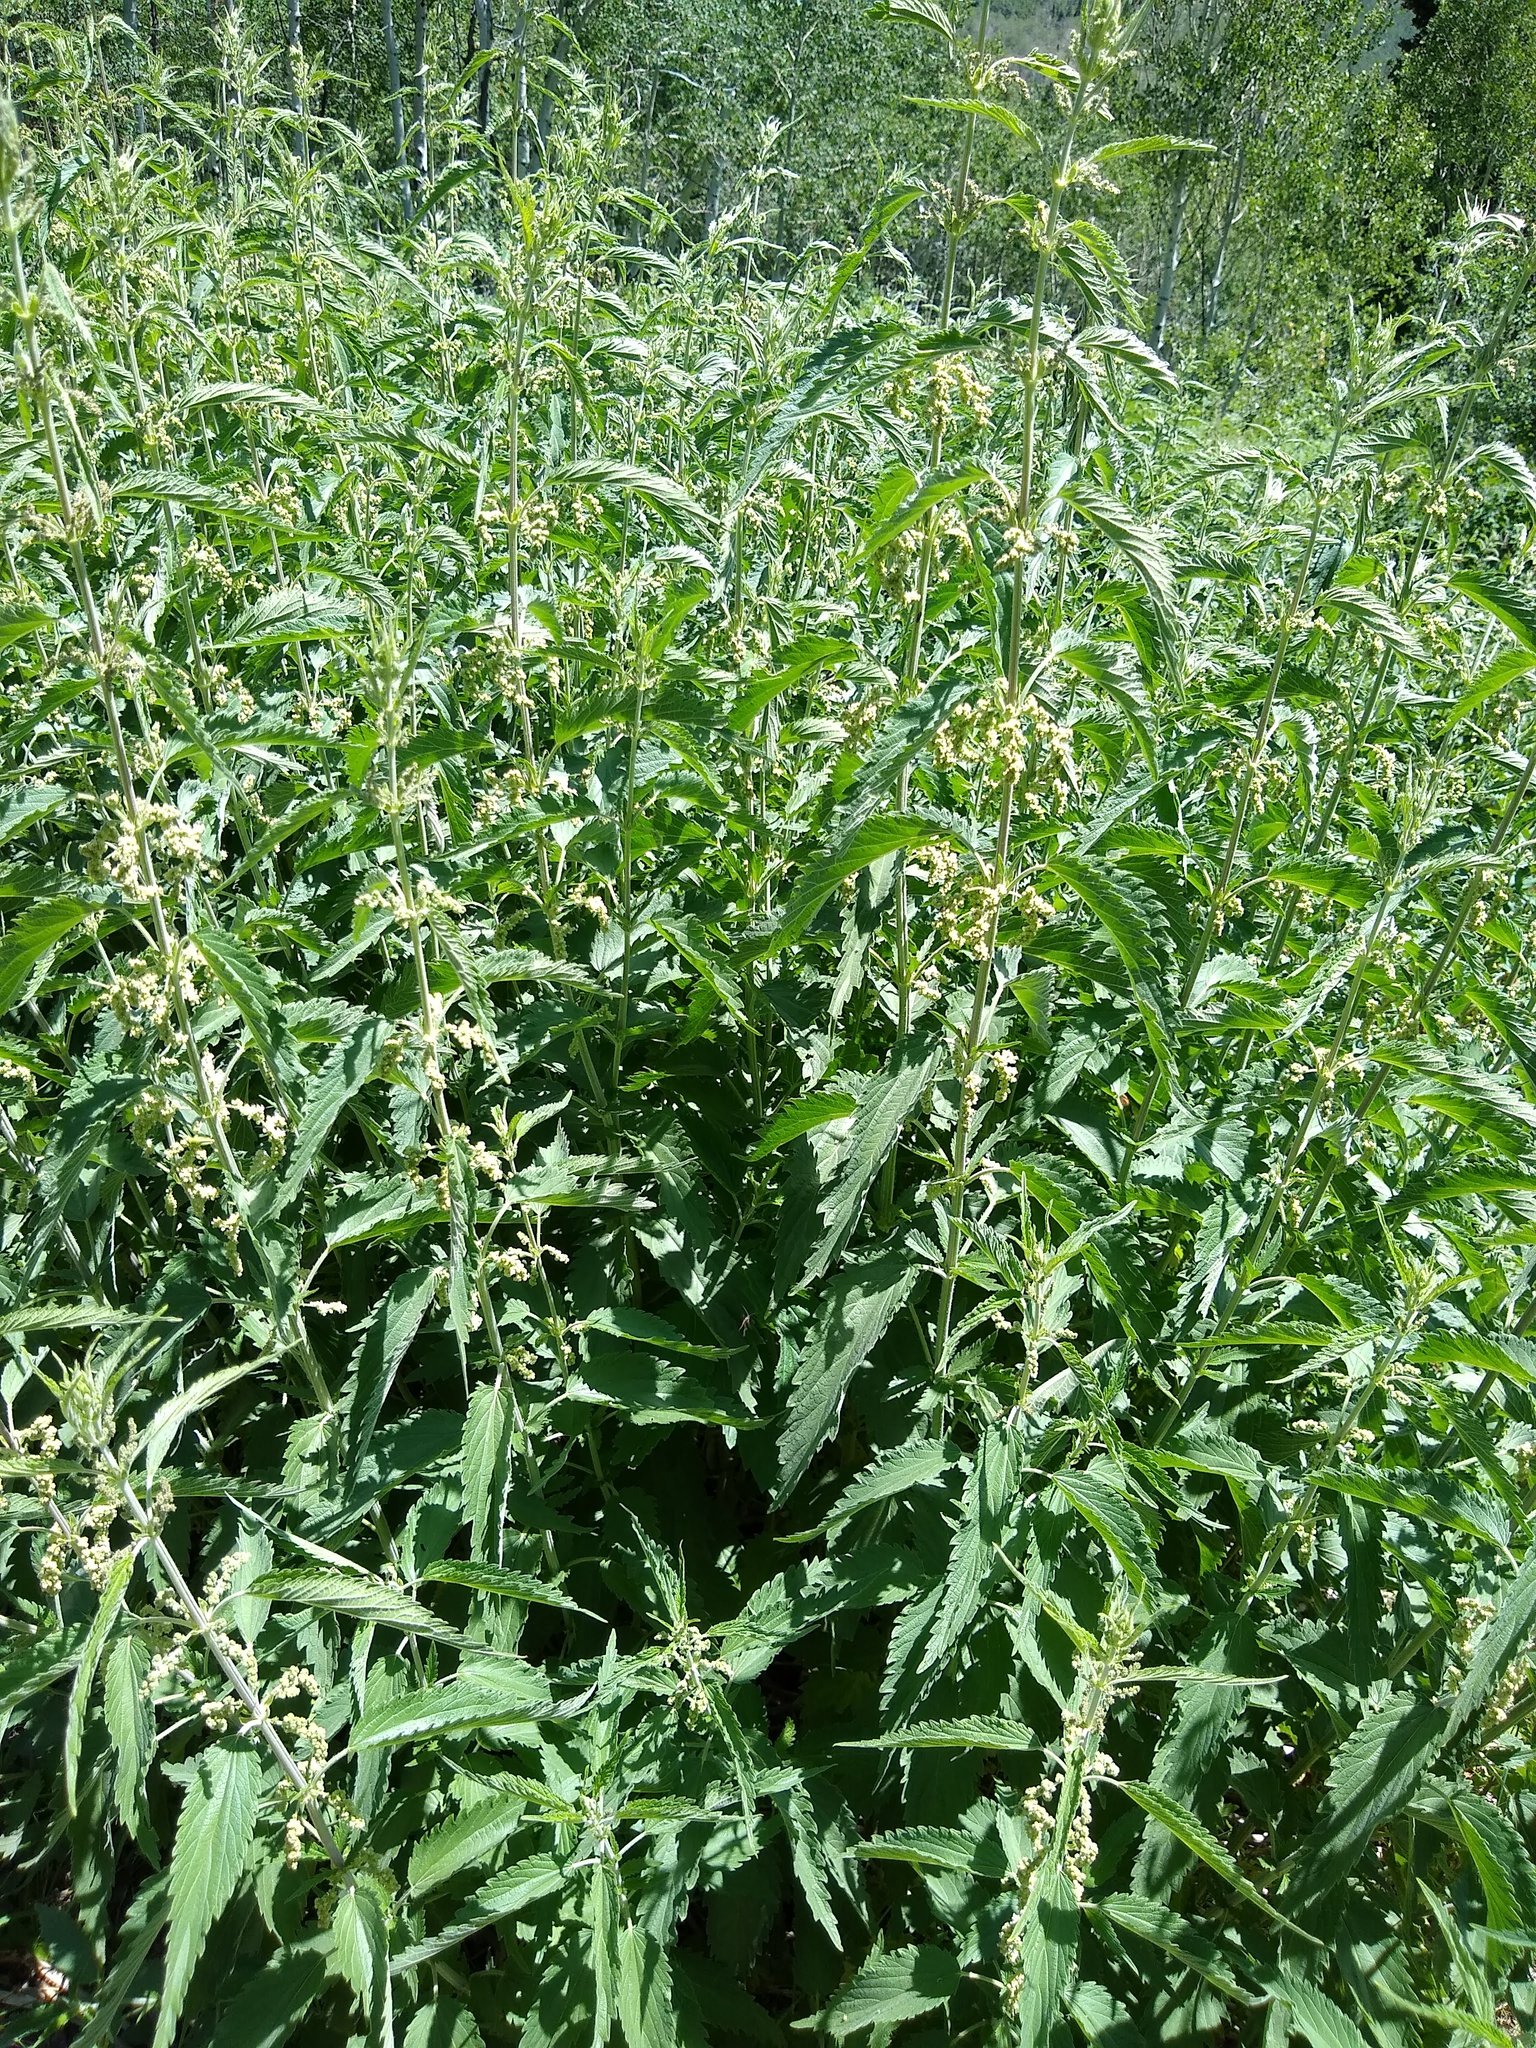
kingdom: Plantae
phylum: Tracheophyta
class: Magnoliopsida
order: Rosales
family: Urticaceae
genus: Urtica
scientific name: Urtica dioica
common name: Common nettle
